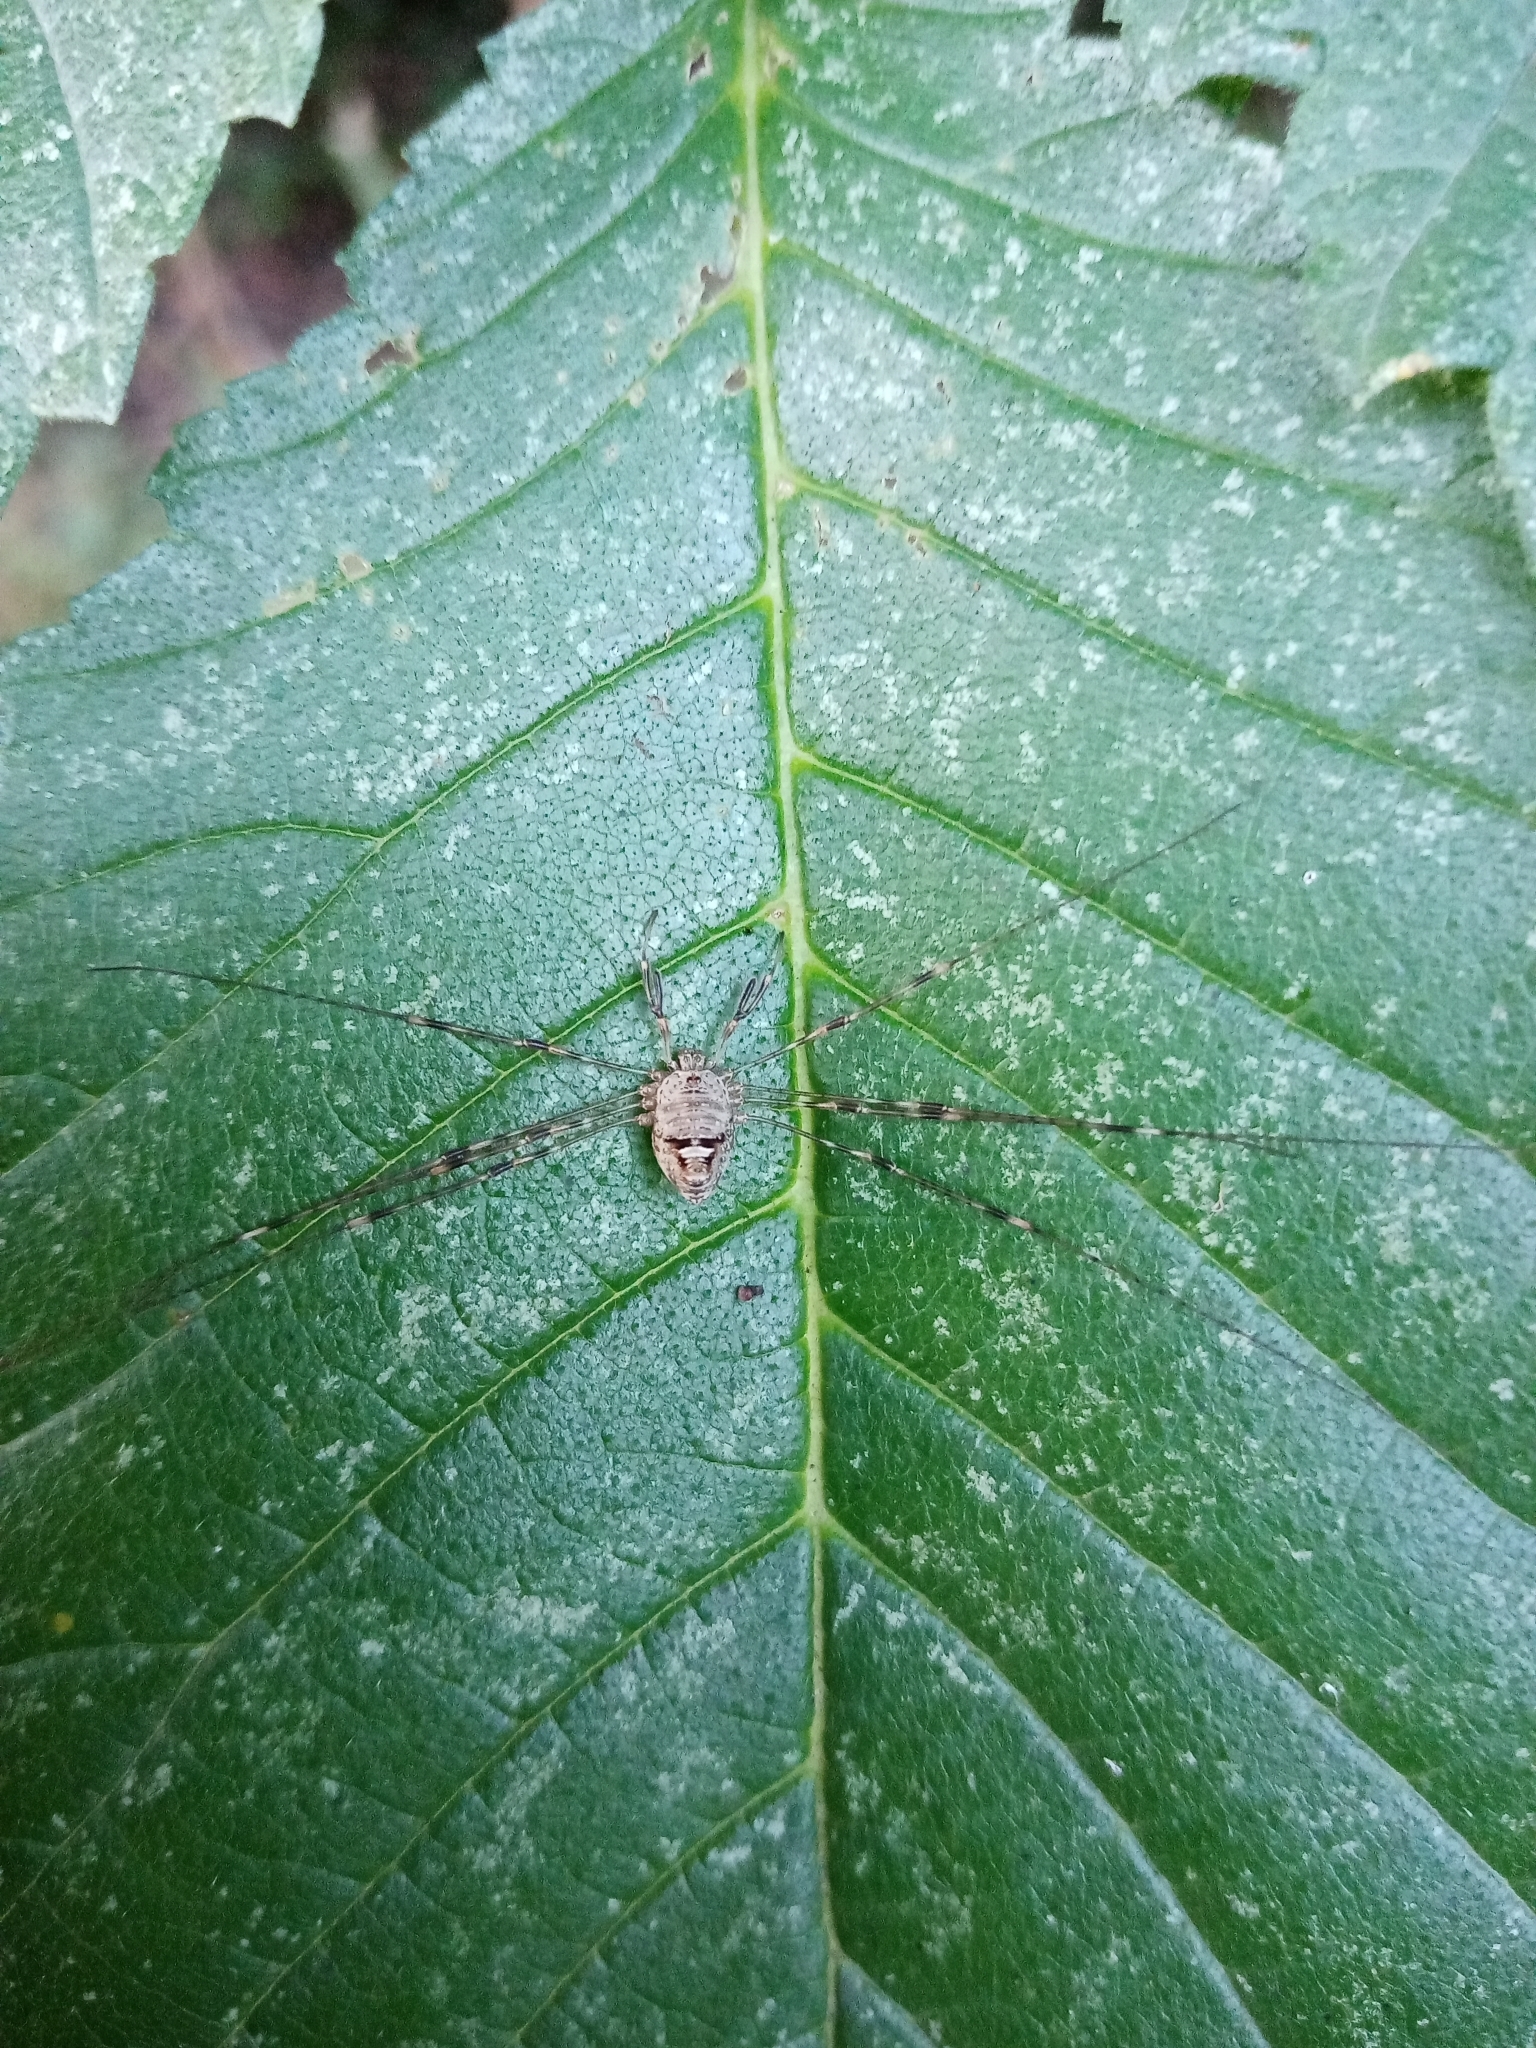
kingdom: Animalia
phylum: Arthropoda
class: Arachnida
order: Opiliones
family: Phalangiidae
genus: Dicranopalpus
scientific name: Dicranopalpus
